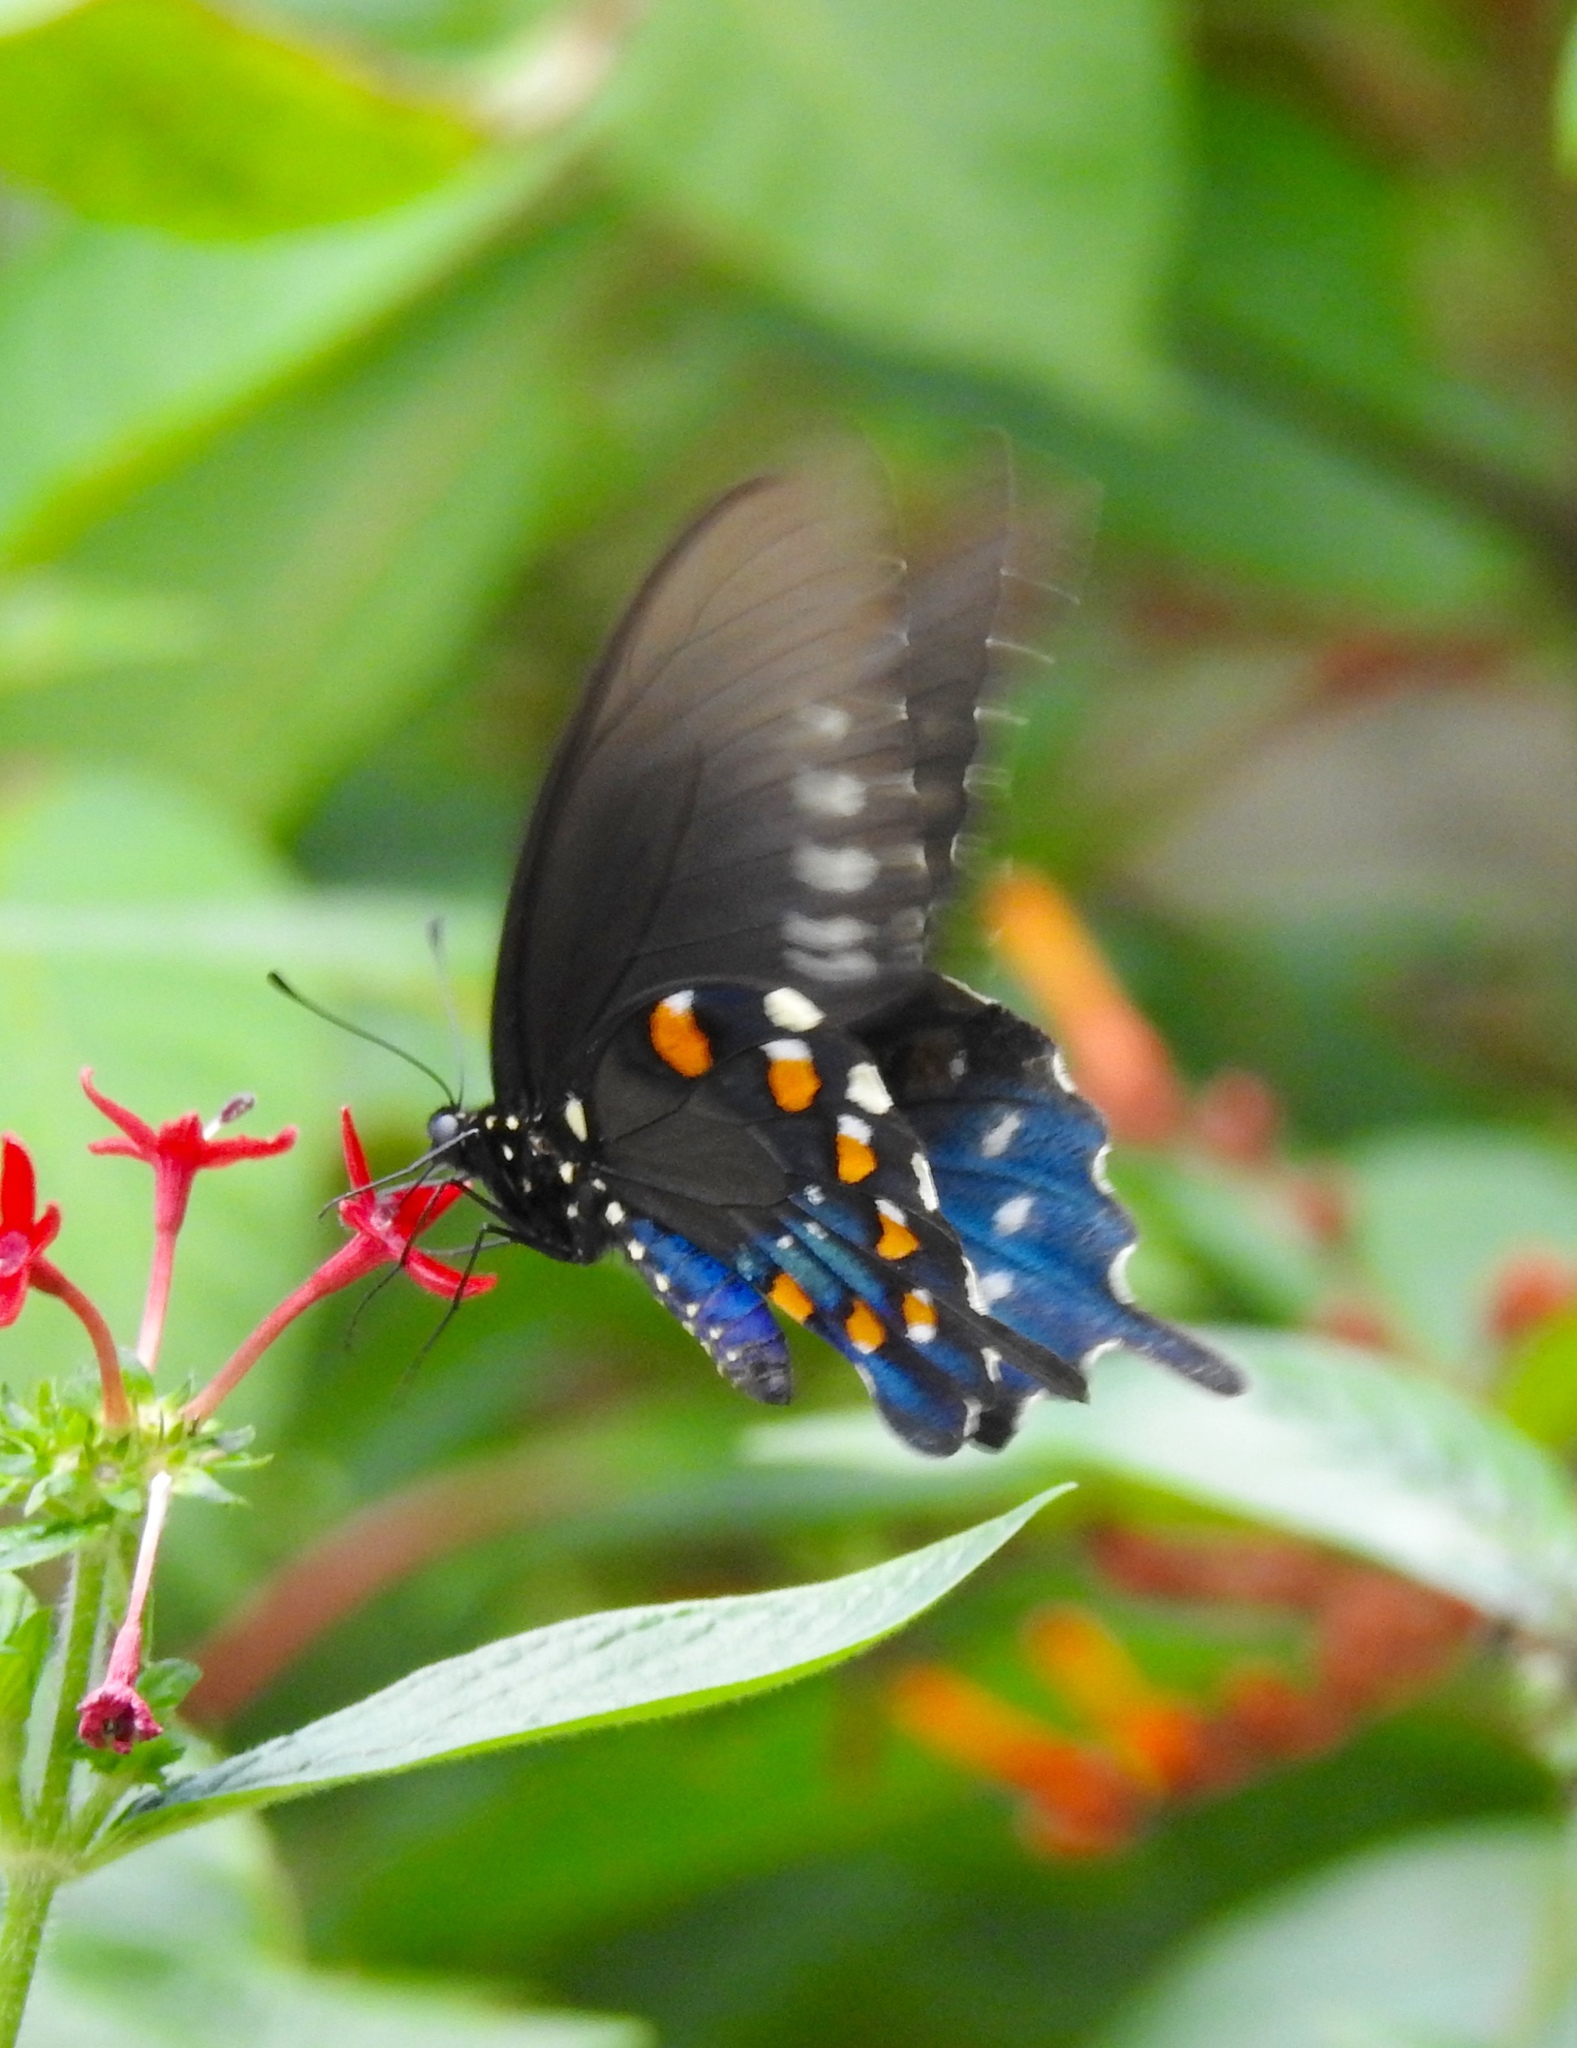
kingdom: Animalia
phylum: Arthropoda
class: Insecta
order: Lepidoptera
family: Papilionidae
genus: Battus
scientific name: Battus philenor
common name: Pipevine swallowtail
